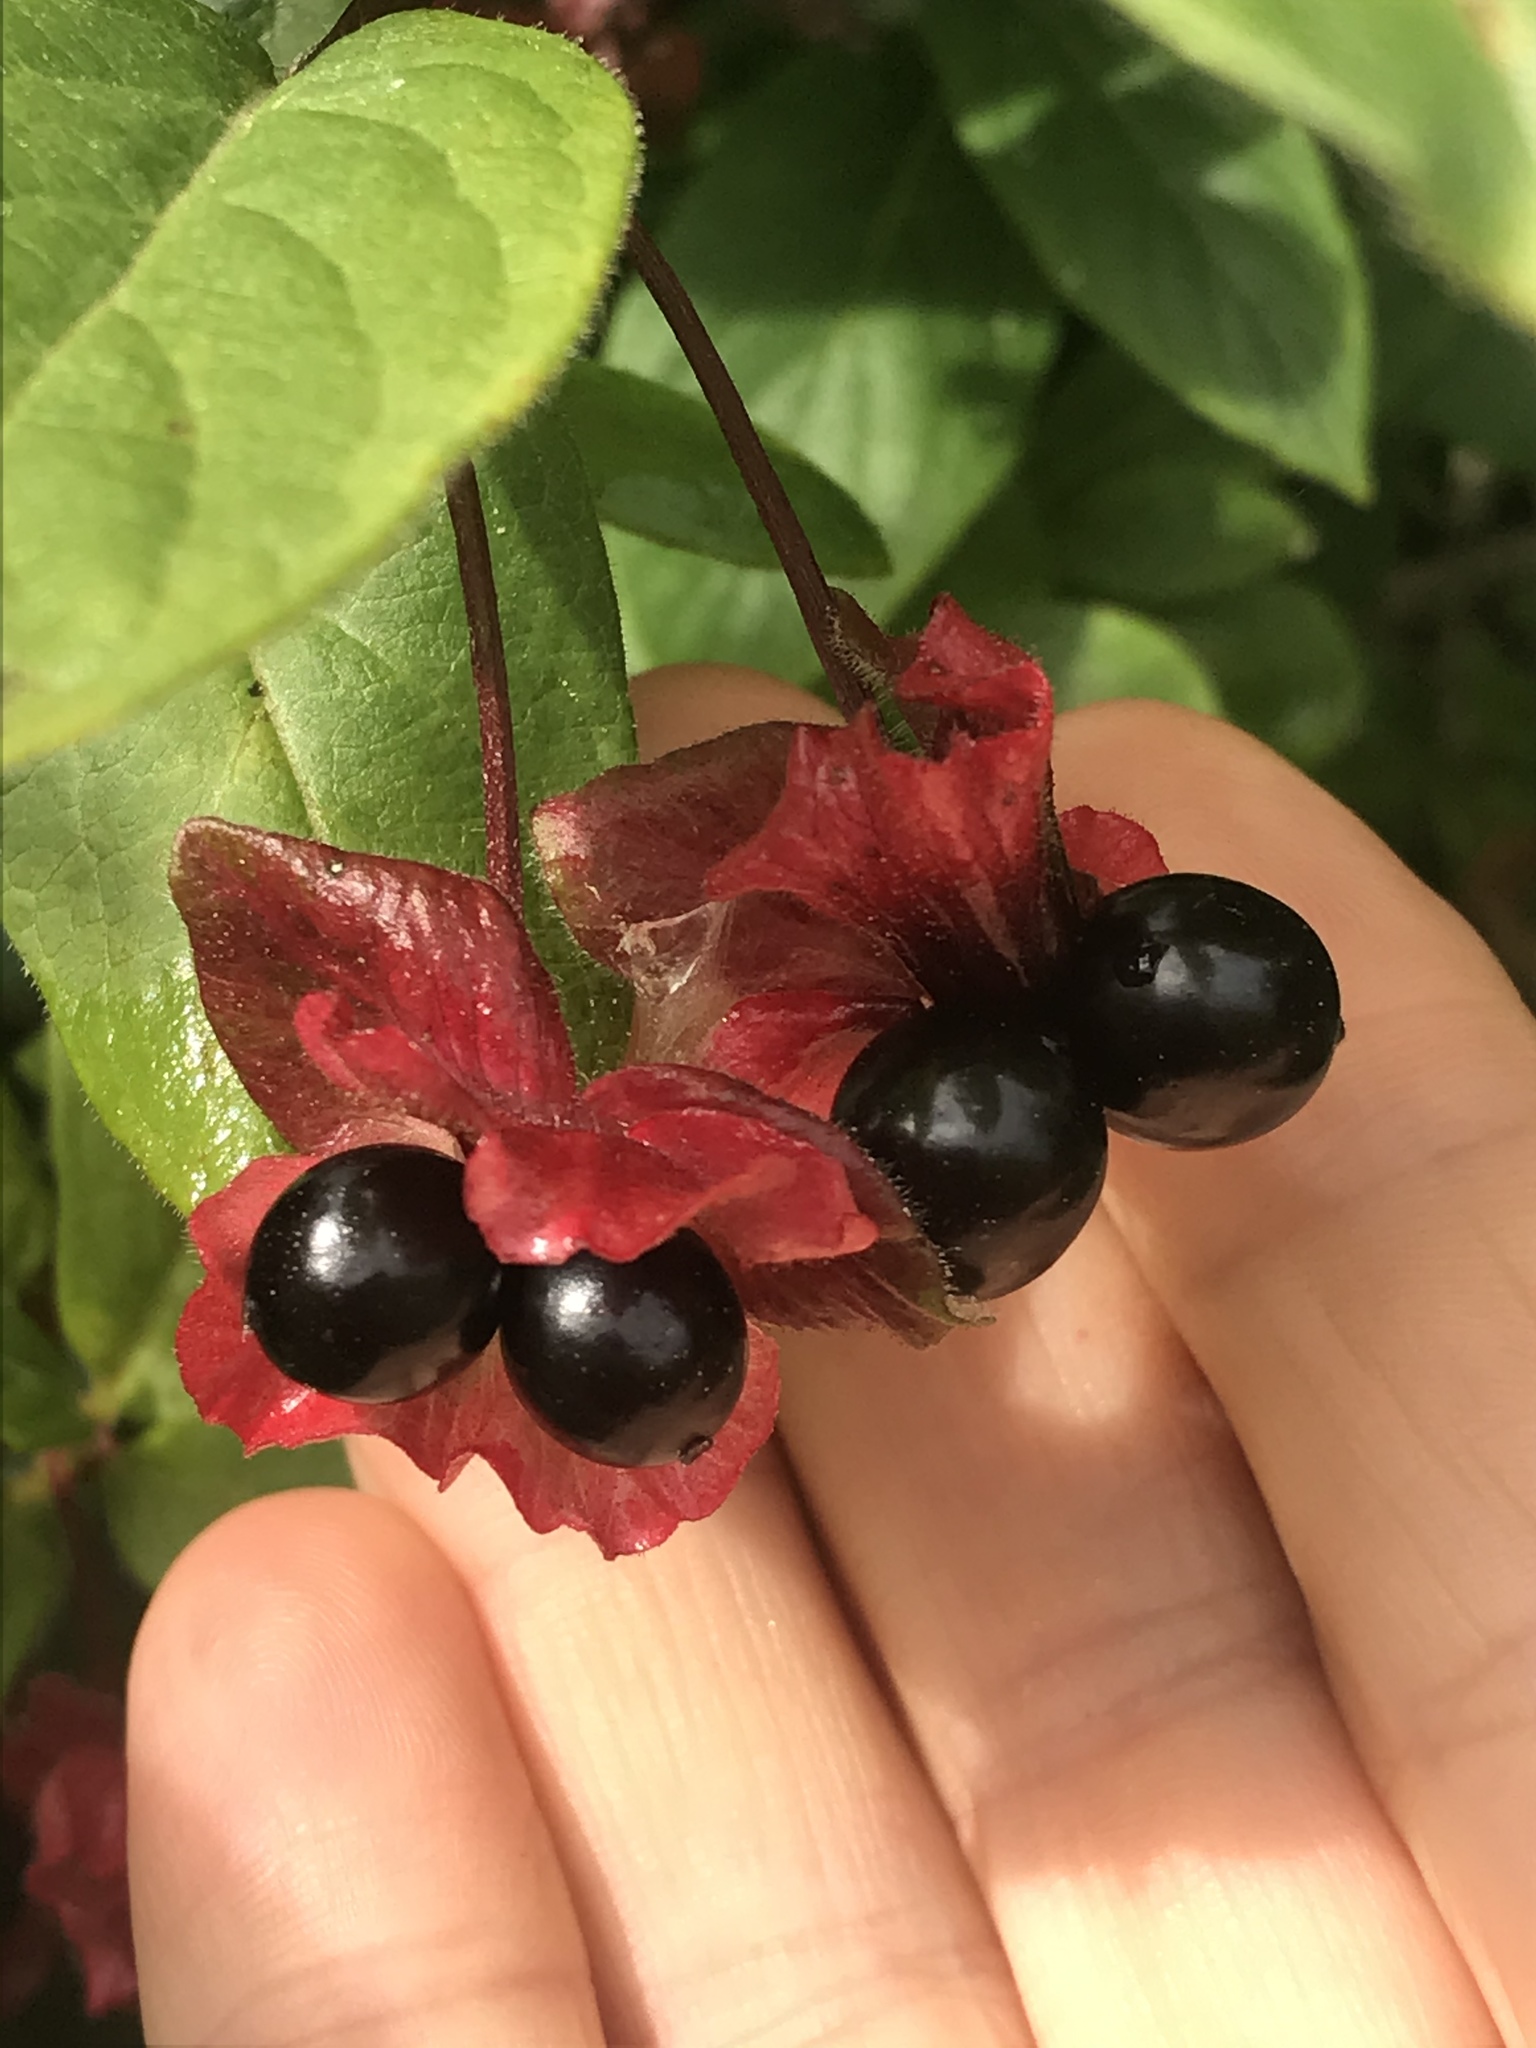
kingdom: Plantae
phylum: Tracheophyta
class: Magnoliopsida
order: Dipsacales
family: Caprifoliaceae
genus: Lonicera
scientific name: Lonicera involucrata
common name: Californian honeysuckle
